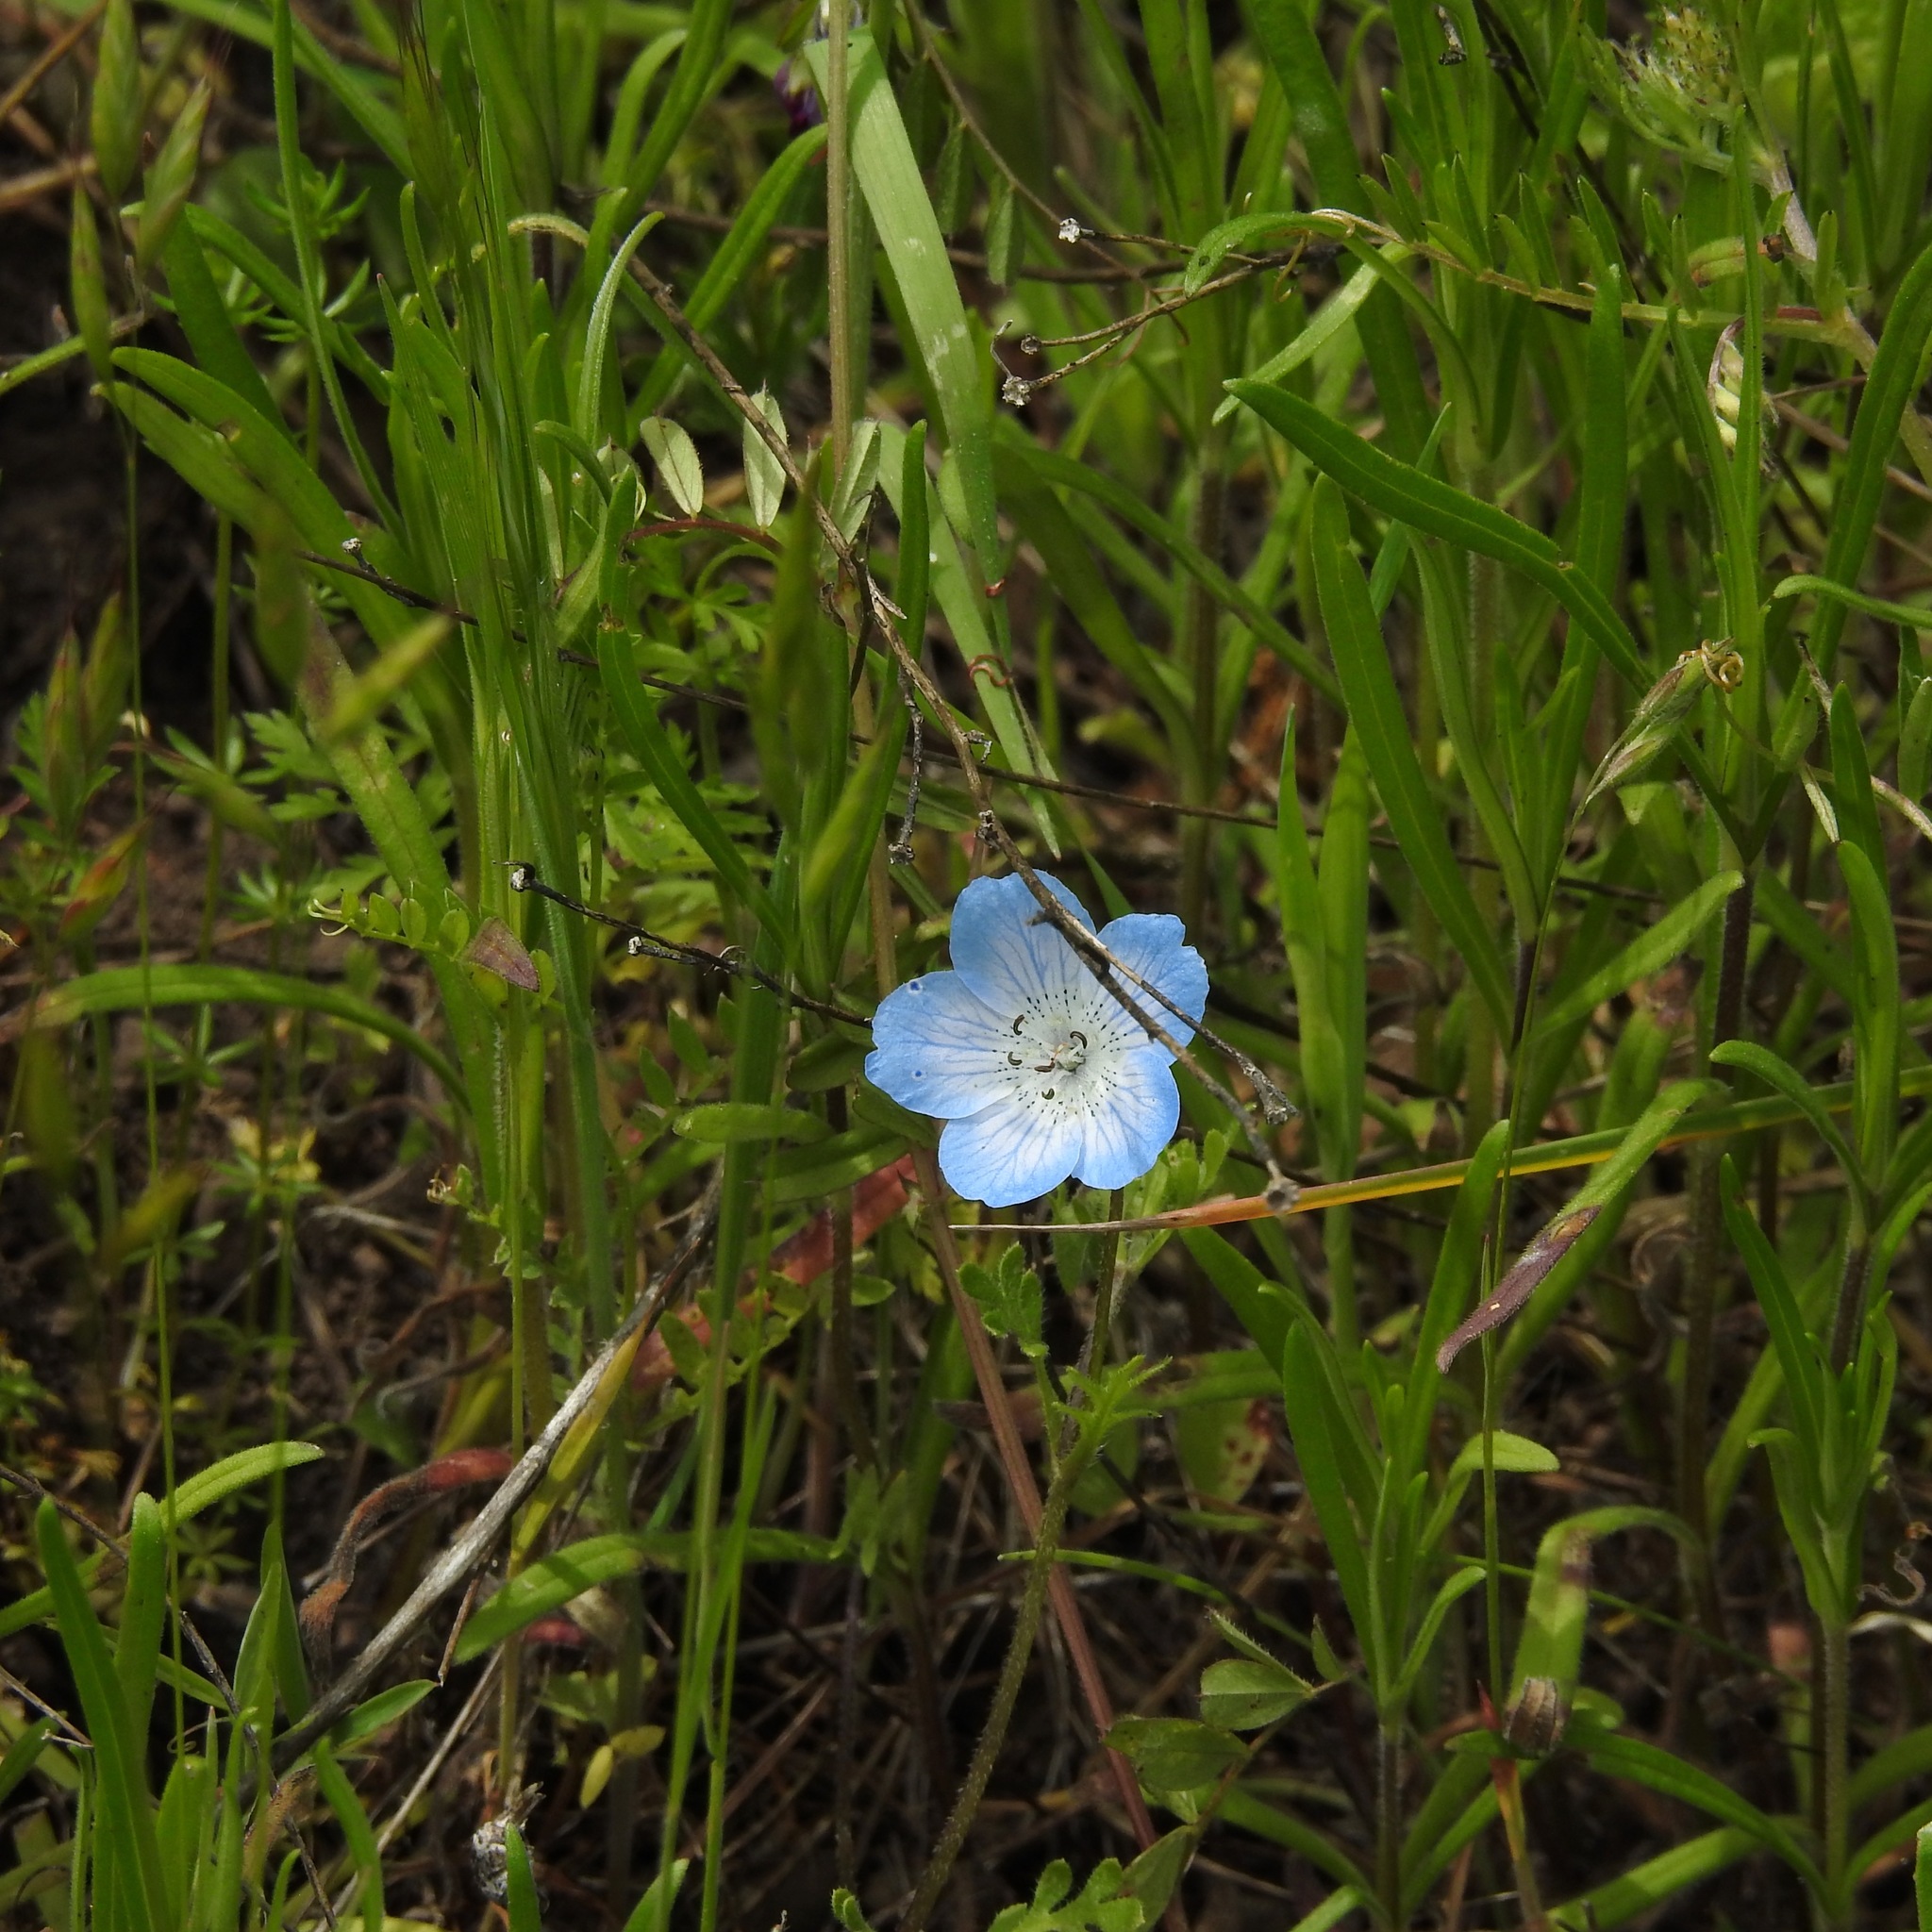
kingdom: Plantae
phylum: Tracheophyta
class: Magnoliopsida
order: Boraginales
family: Hydrophyllaceae
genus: Nemophila
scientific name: Nemophila menziesii
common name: Baby's-blue-eyes
